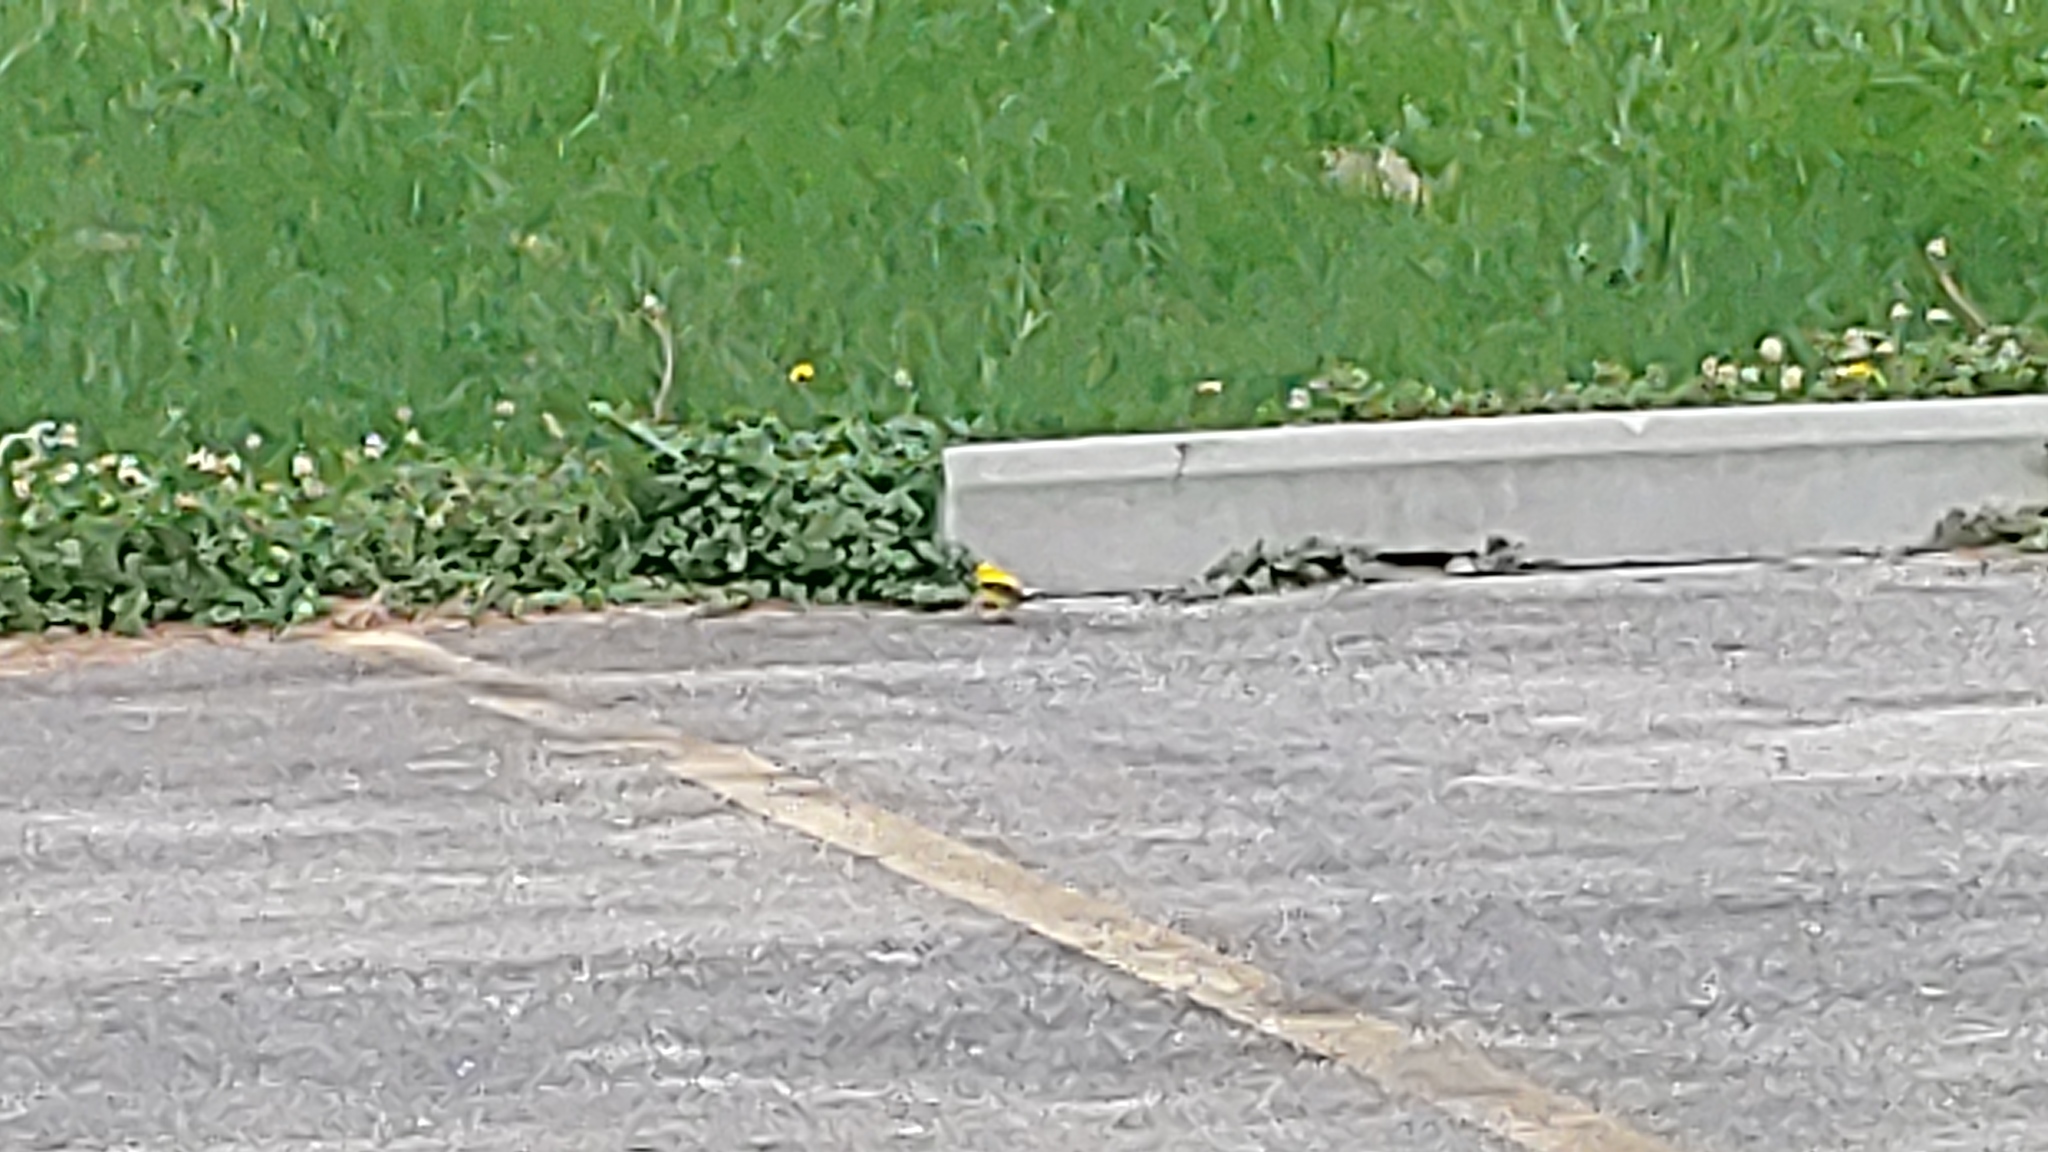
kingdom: Animalia
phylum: Chordata
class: Aves
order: Passeriformes
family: Fringillidae
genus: Spinus
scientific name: Spinus tristis
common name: American goldfinch
